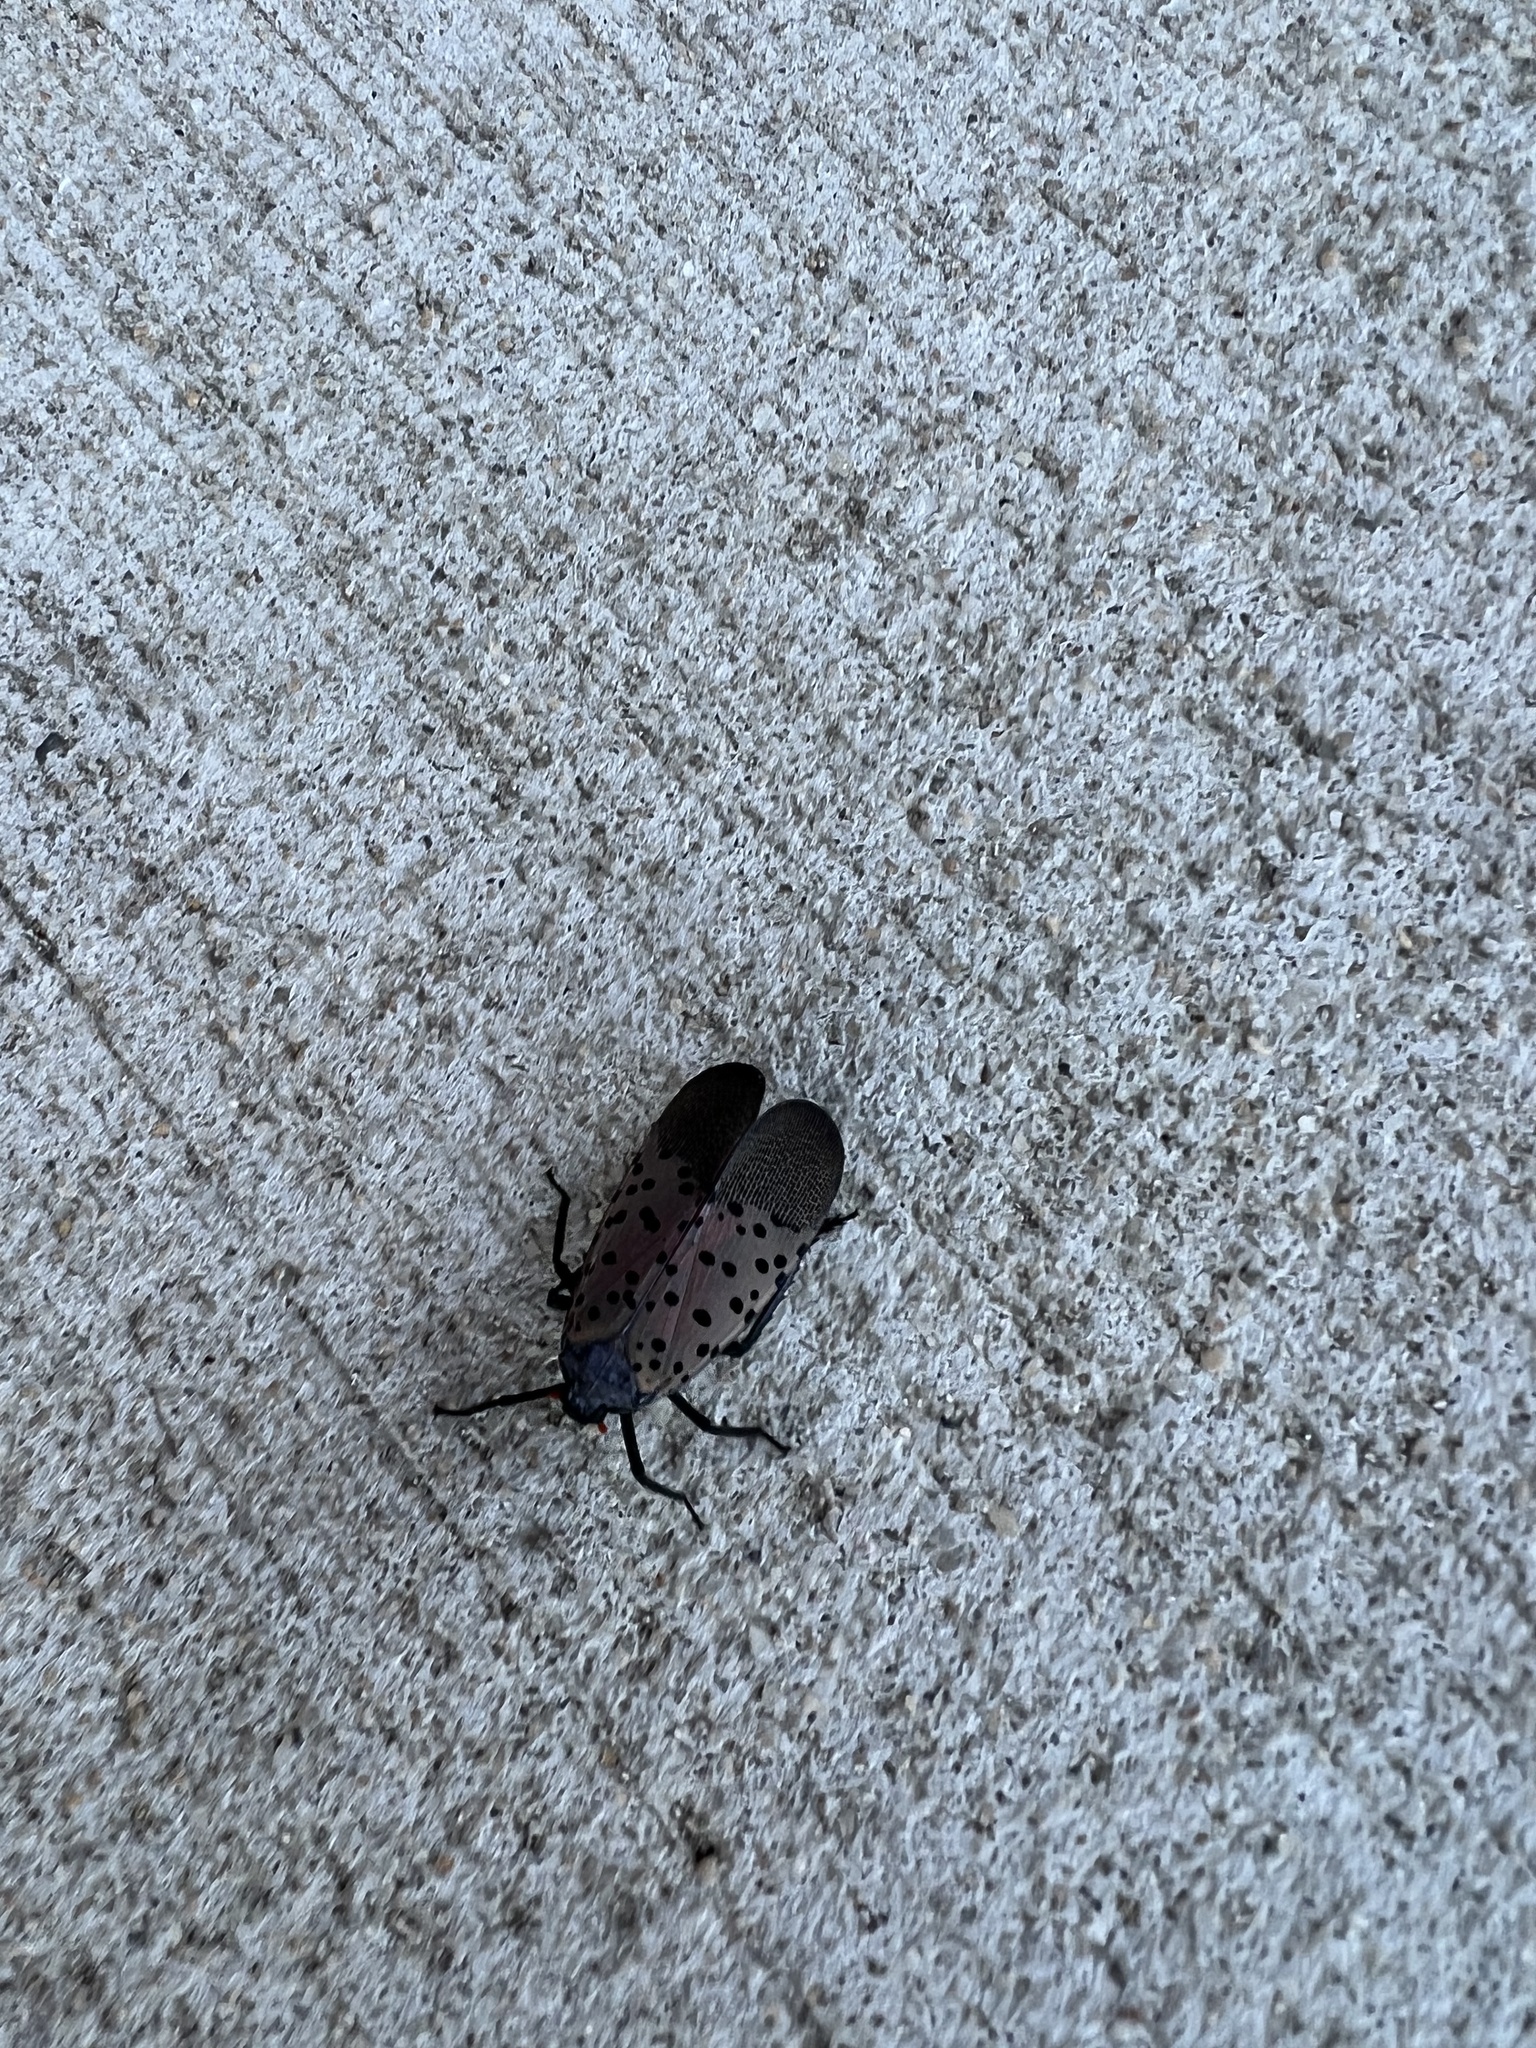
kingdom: Animalia
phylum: Arthropoda
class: Insecta
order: Hemiptera
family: Fulgoridae
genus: Lycorma
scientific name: Lycorma delicatula
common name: Spotted lanternfly
